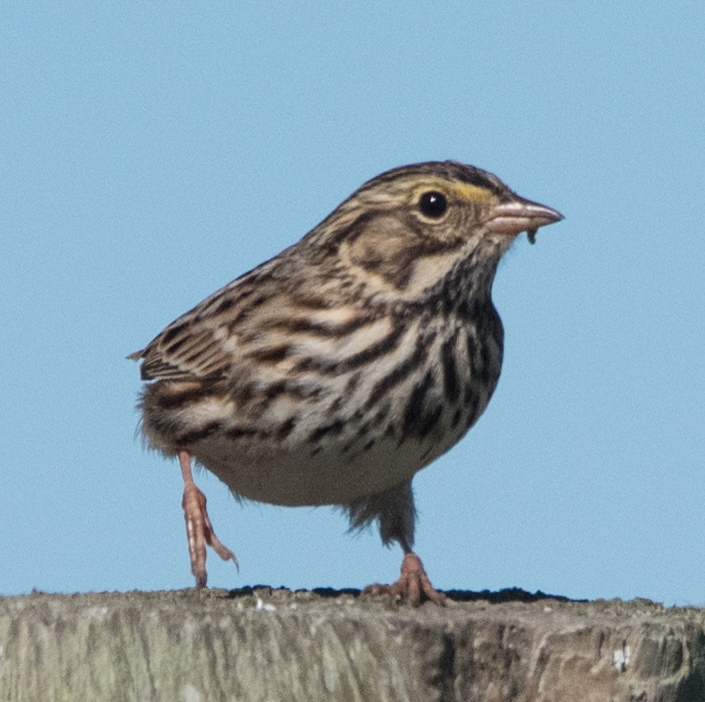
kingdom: Animalia
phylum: Chordata
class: Aves
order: Passeriformes
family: Passerellidae
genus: Passerculus
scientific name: Passerculus sandwichensis
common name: Savannah sparrow
